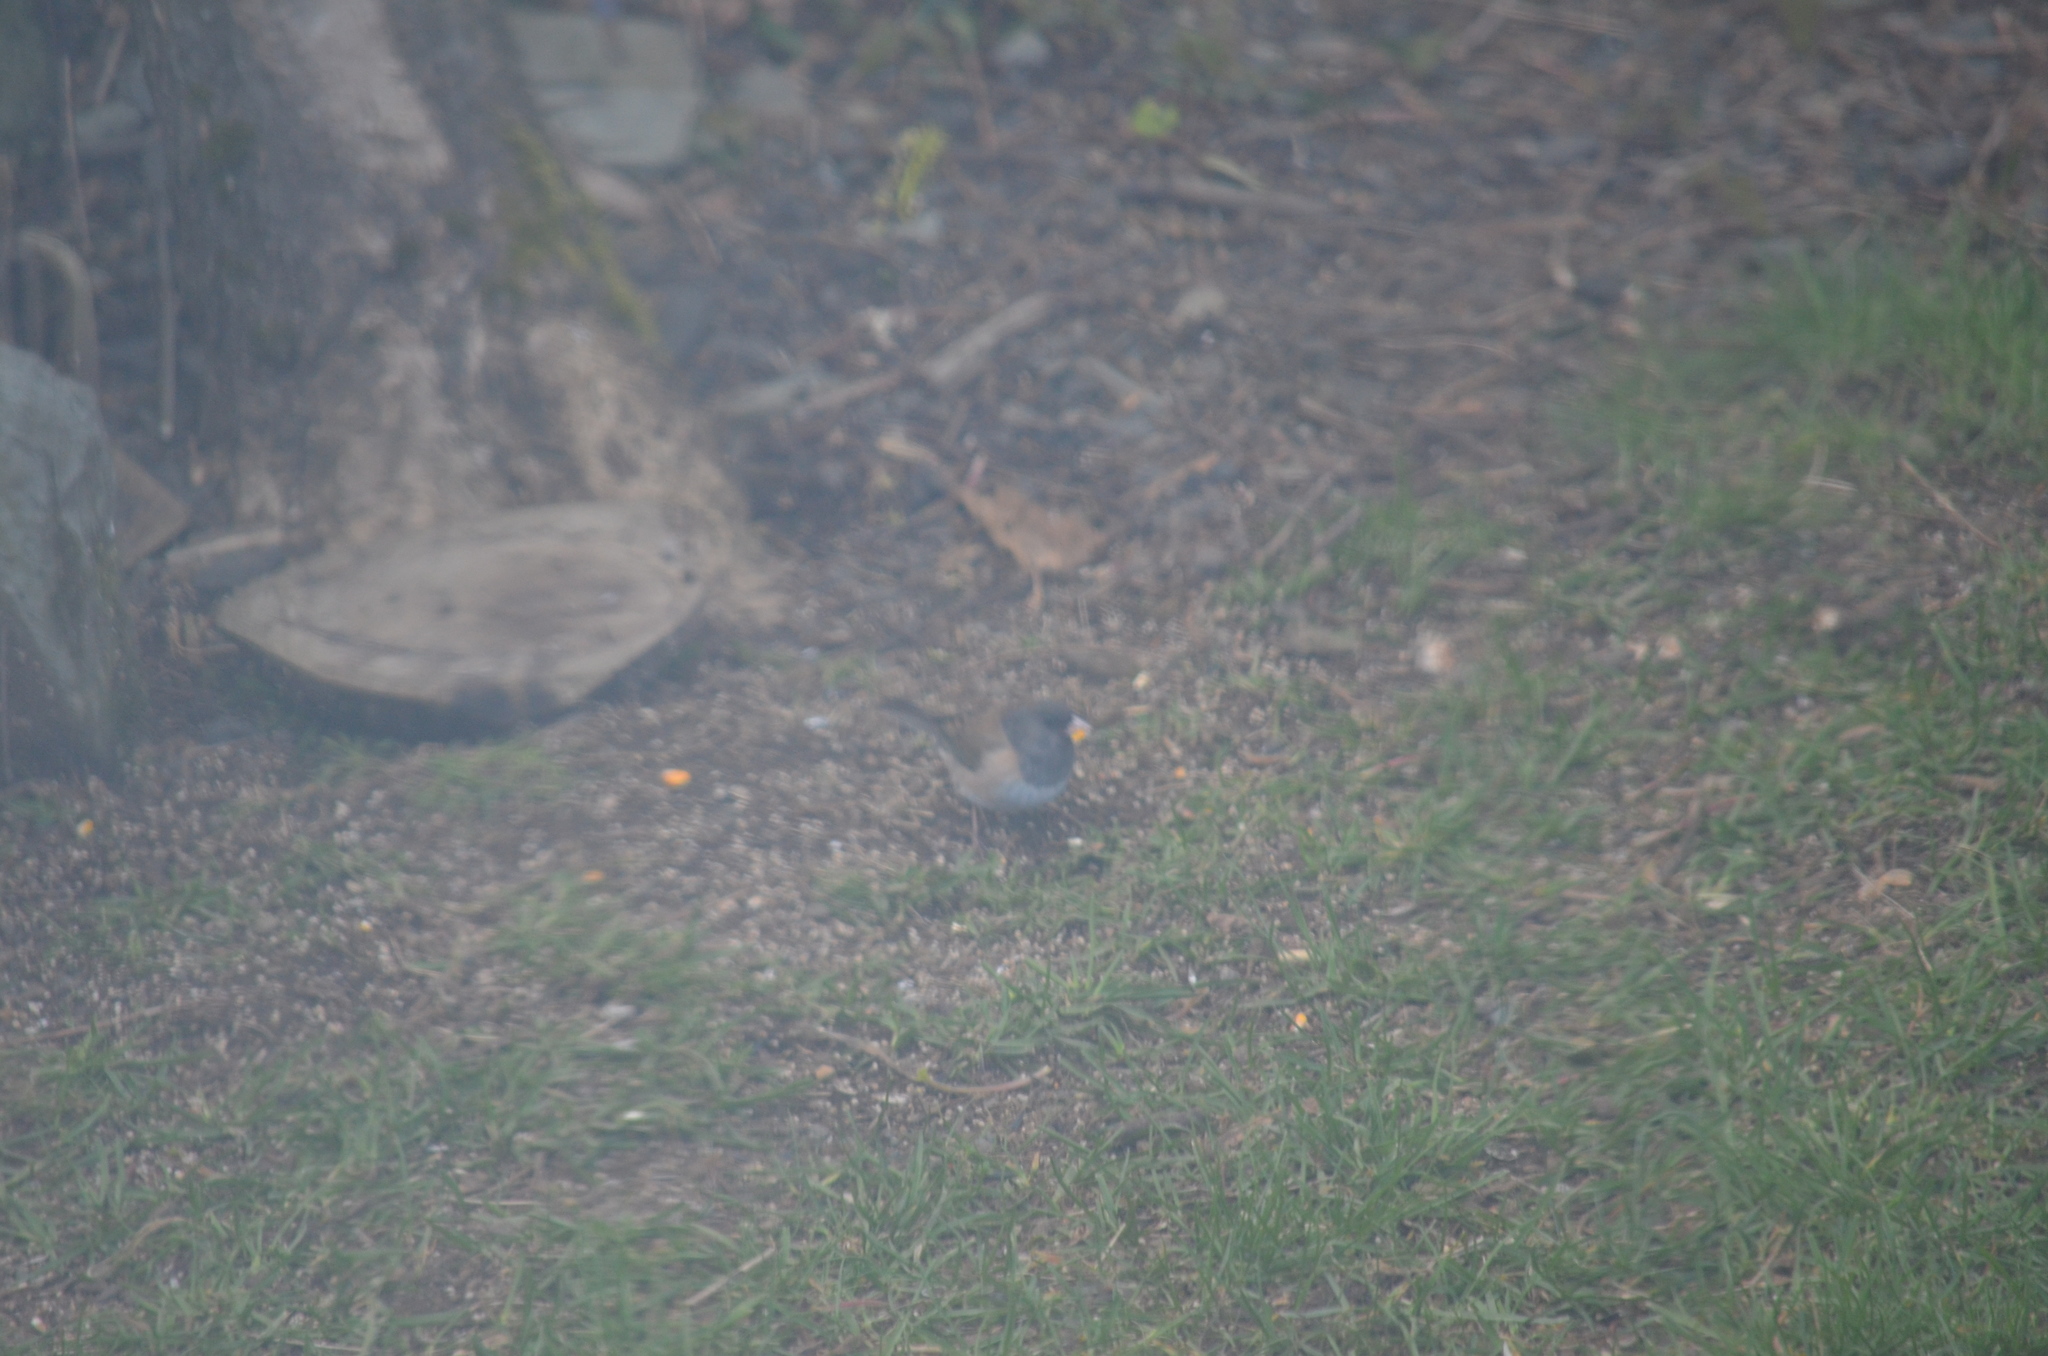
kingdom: Animalia
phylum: Chordata
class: Aves
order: Passeriformes
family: Passerellidae
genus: Junco
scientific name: Junco hyemalis
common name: Dark-eyed junco
